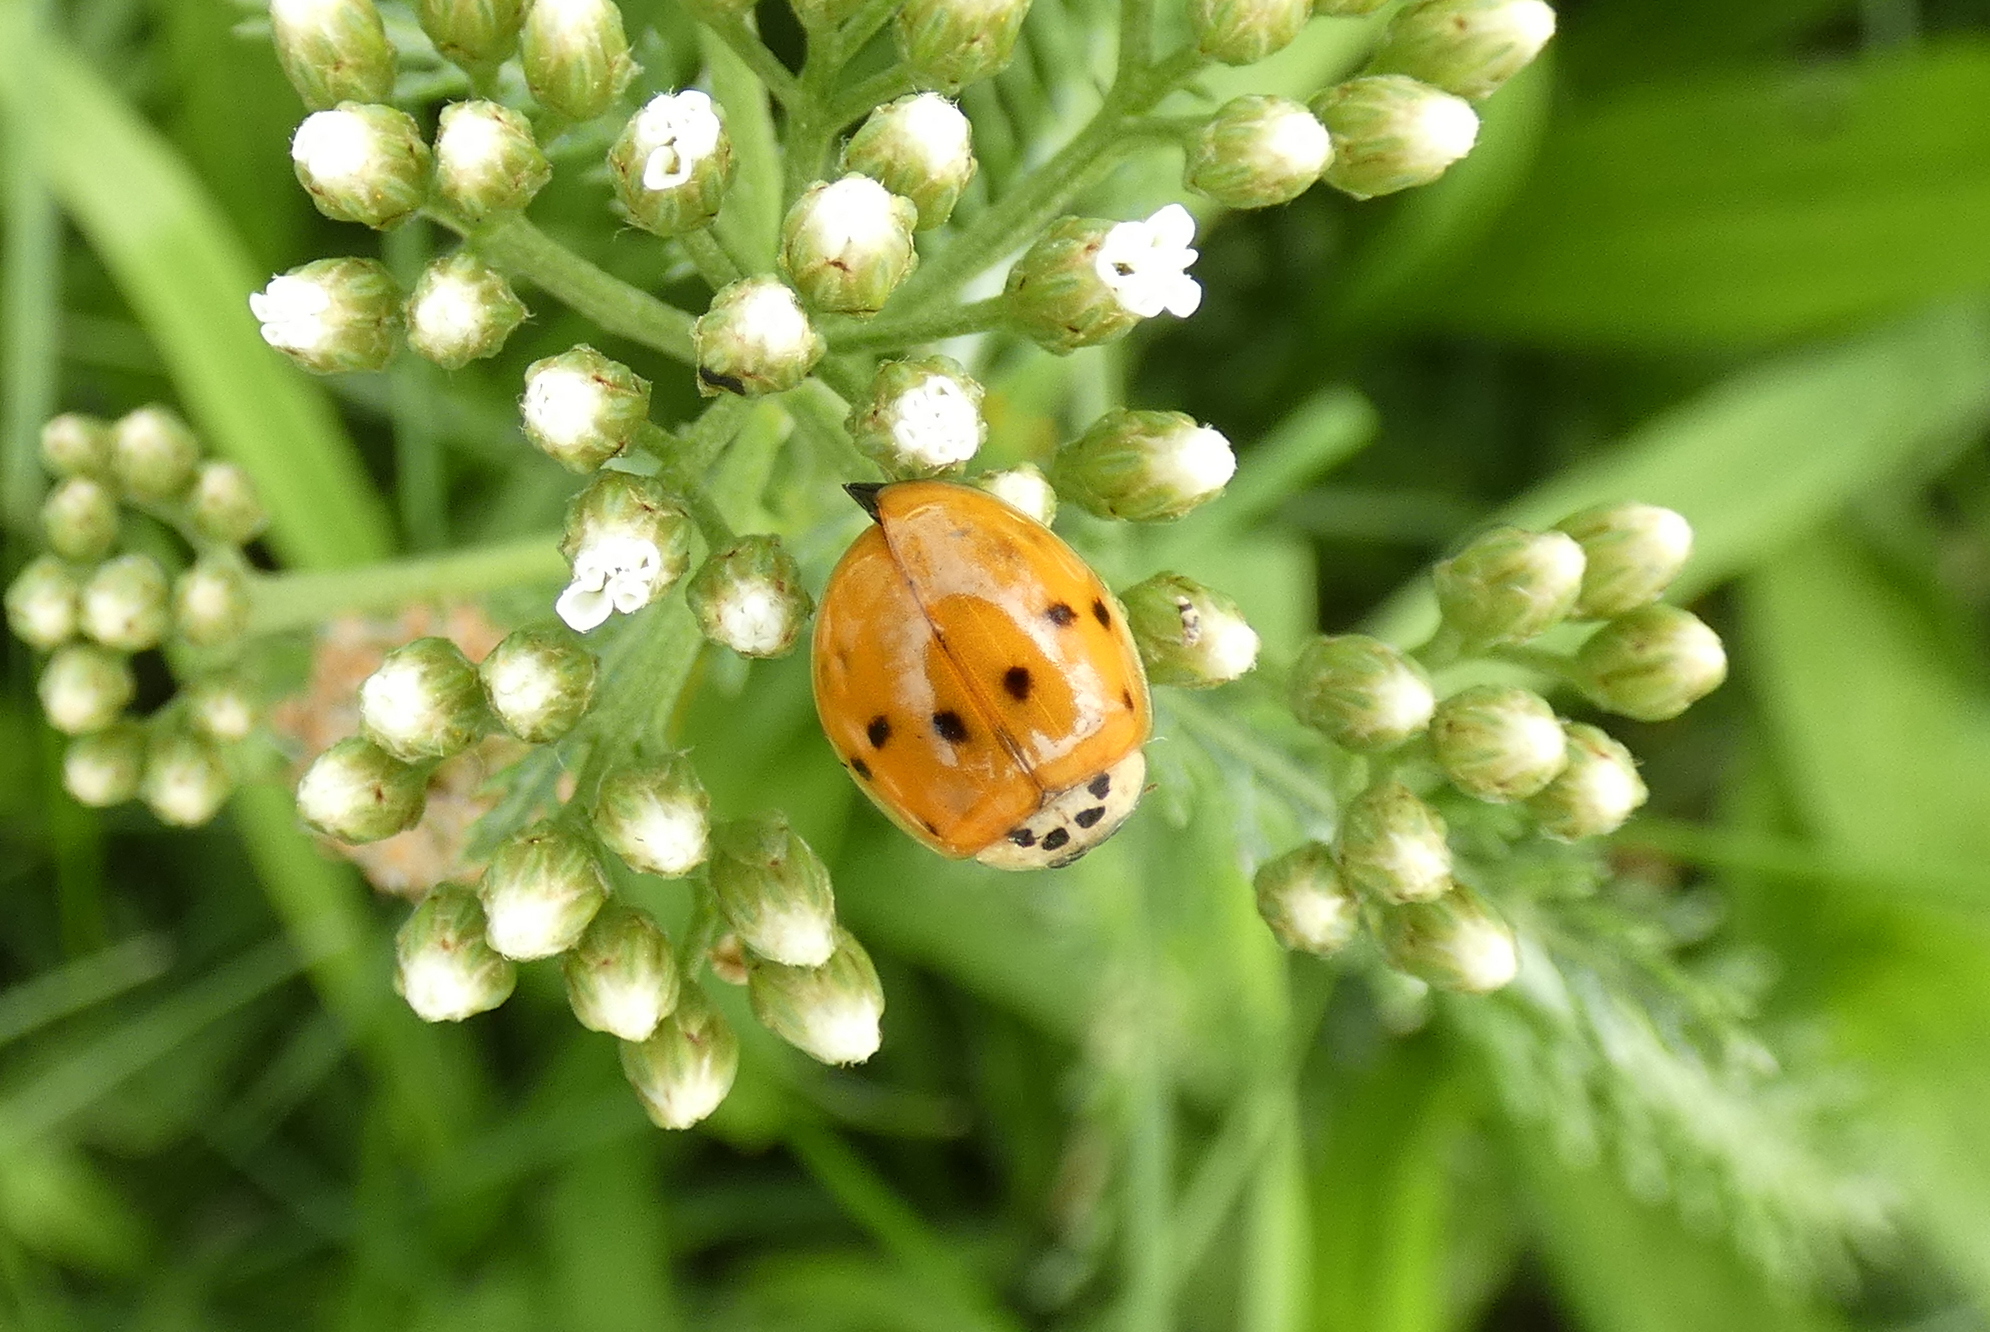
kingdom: Animalia
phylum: Arthropoda
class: Insecta
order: Coleoptera
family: Coccinellidae
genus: Harmonia
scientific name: Harmonia axyridis
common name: Harlequin ladybird
